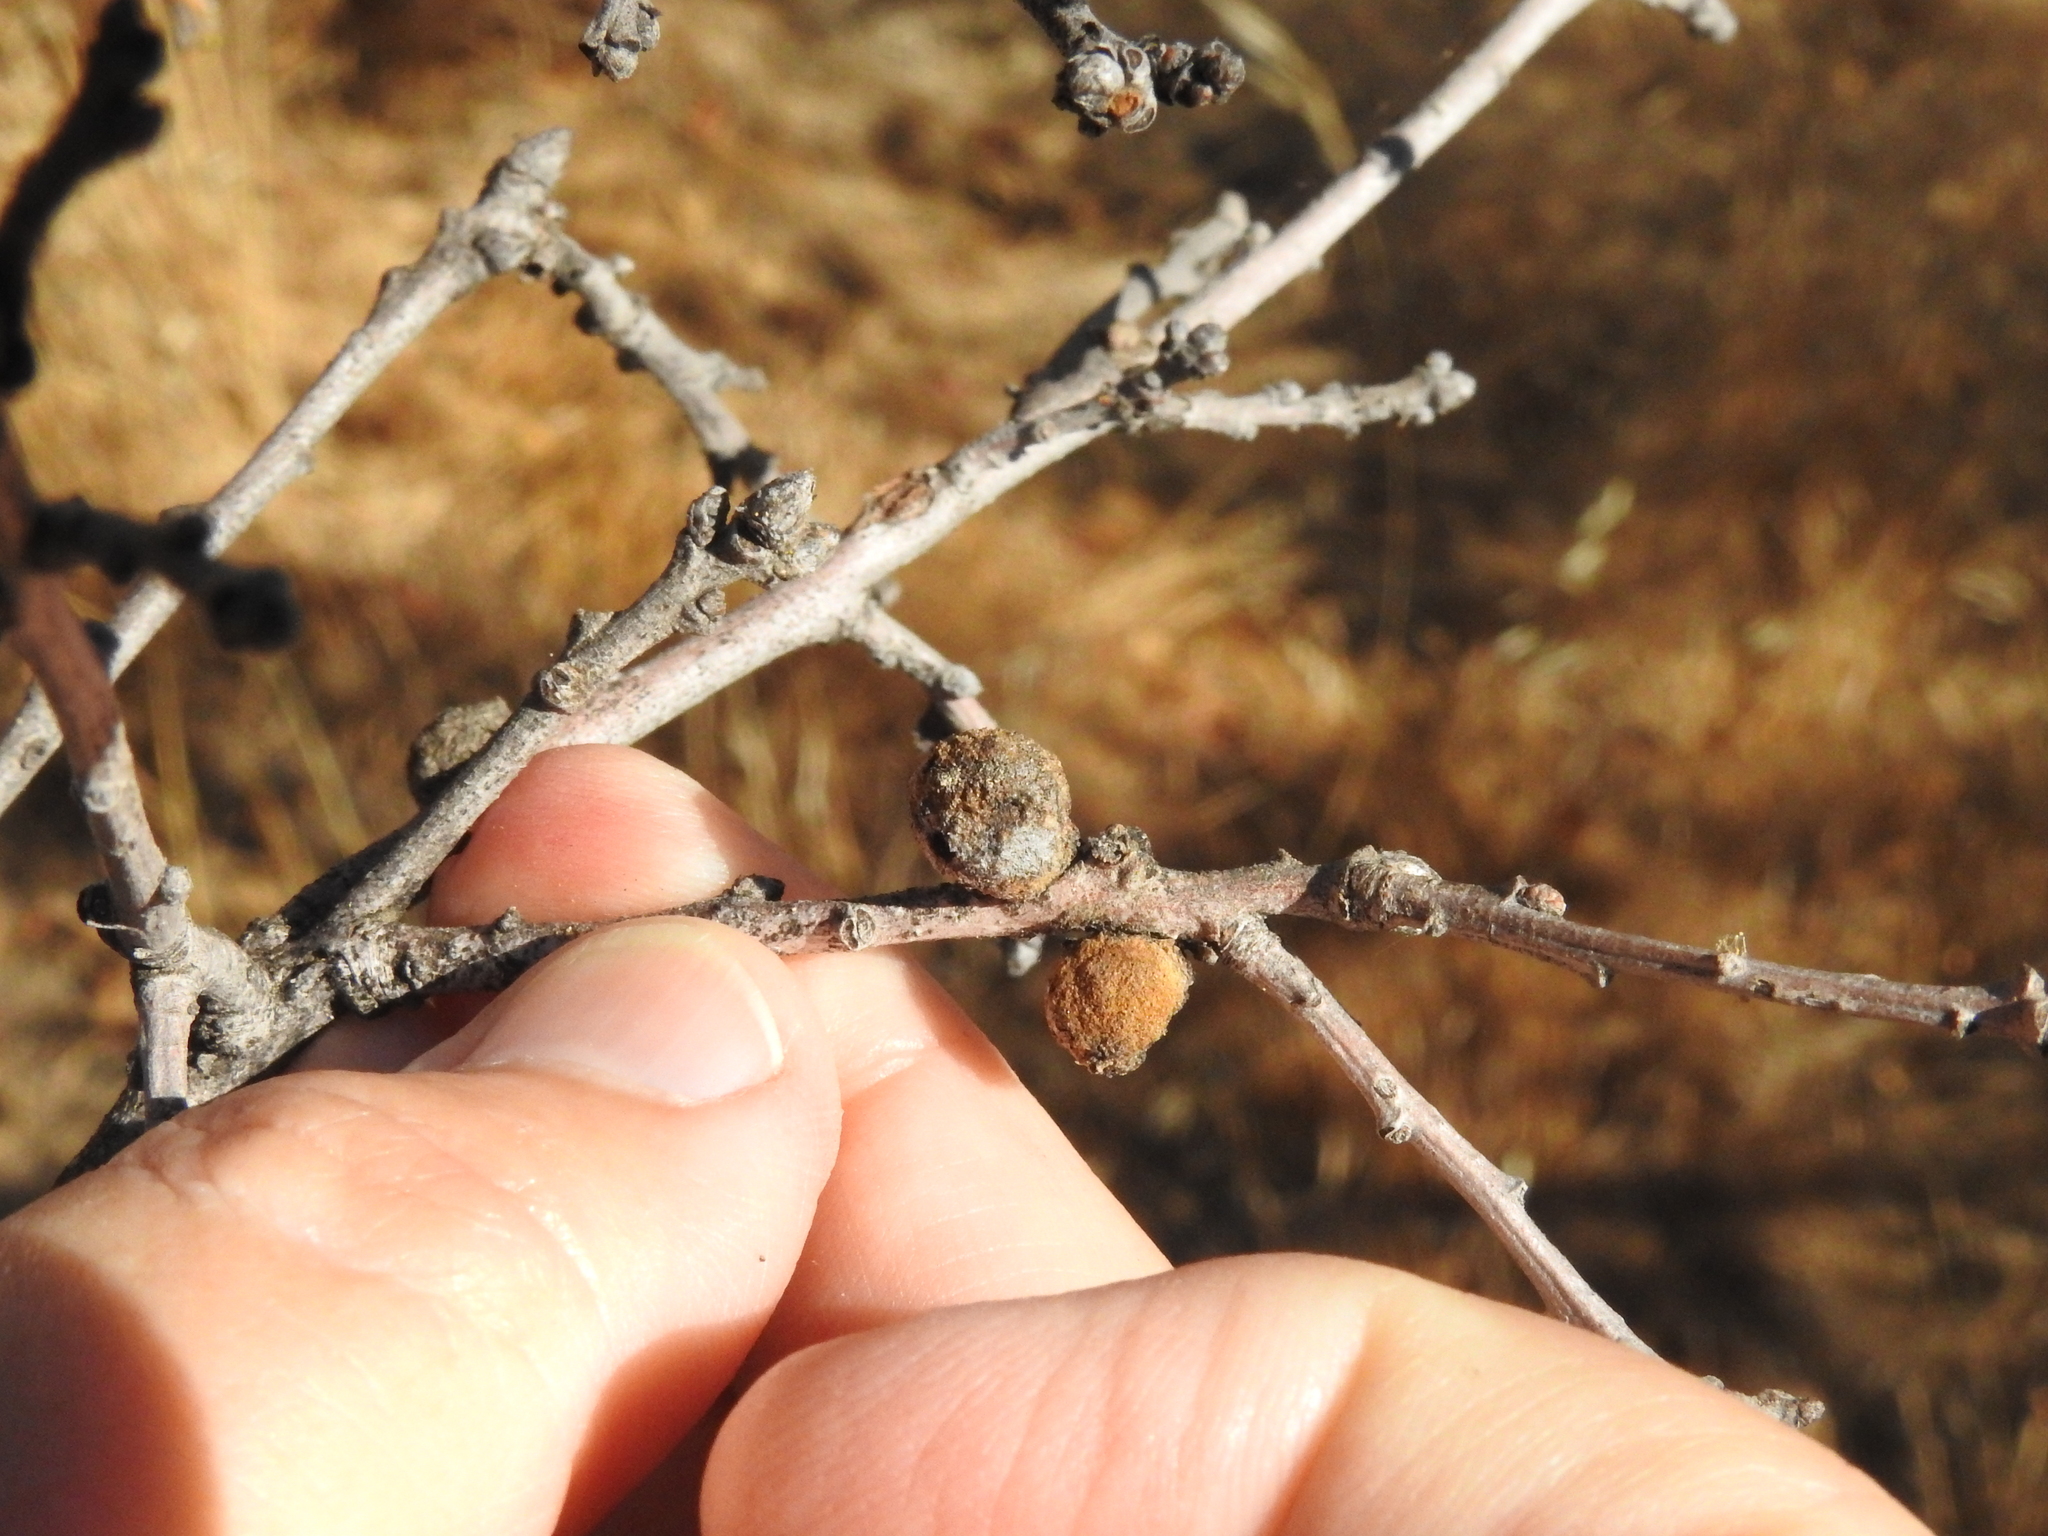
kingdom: Animalia
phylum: Arthropoda
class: Insecta
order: Hymenoptera
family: Cynipidae
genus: Burnettweldia
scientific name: Burnettweldia
